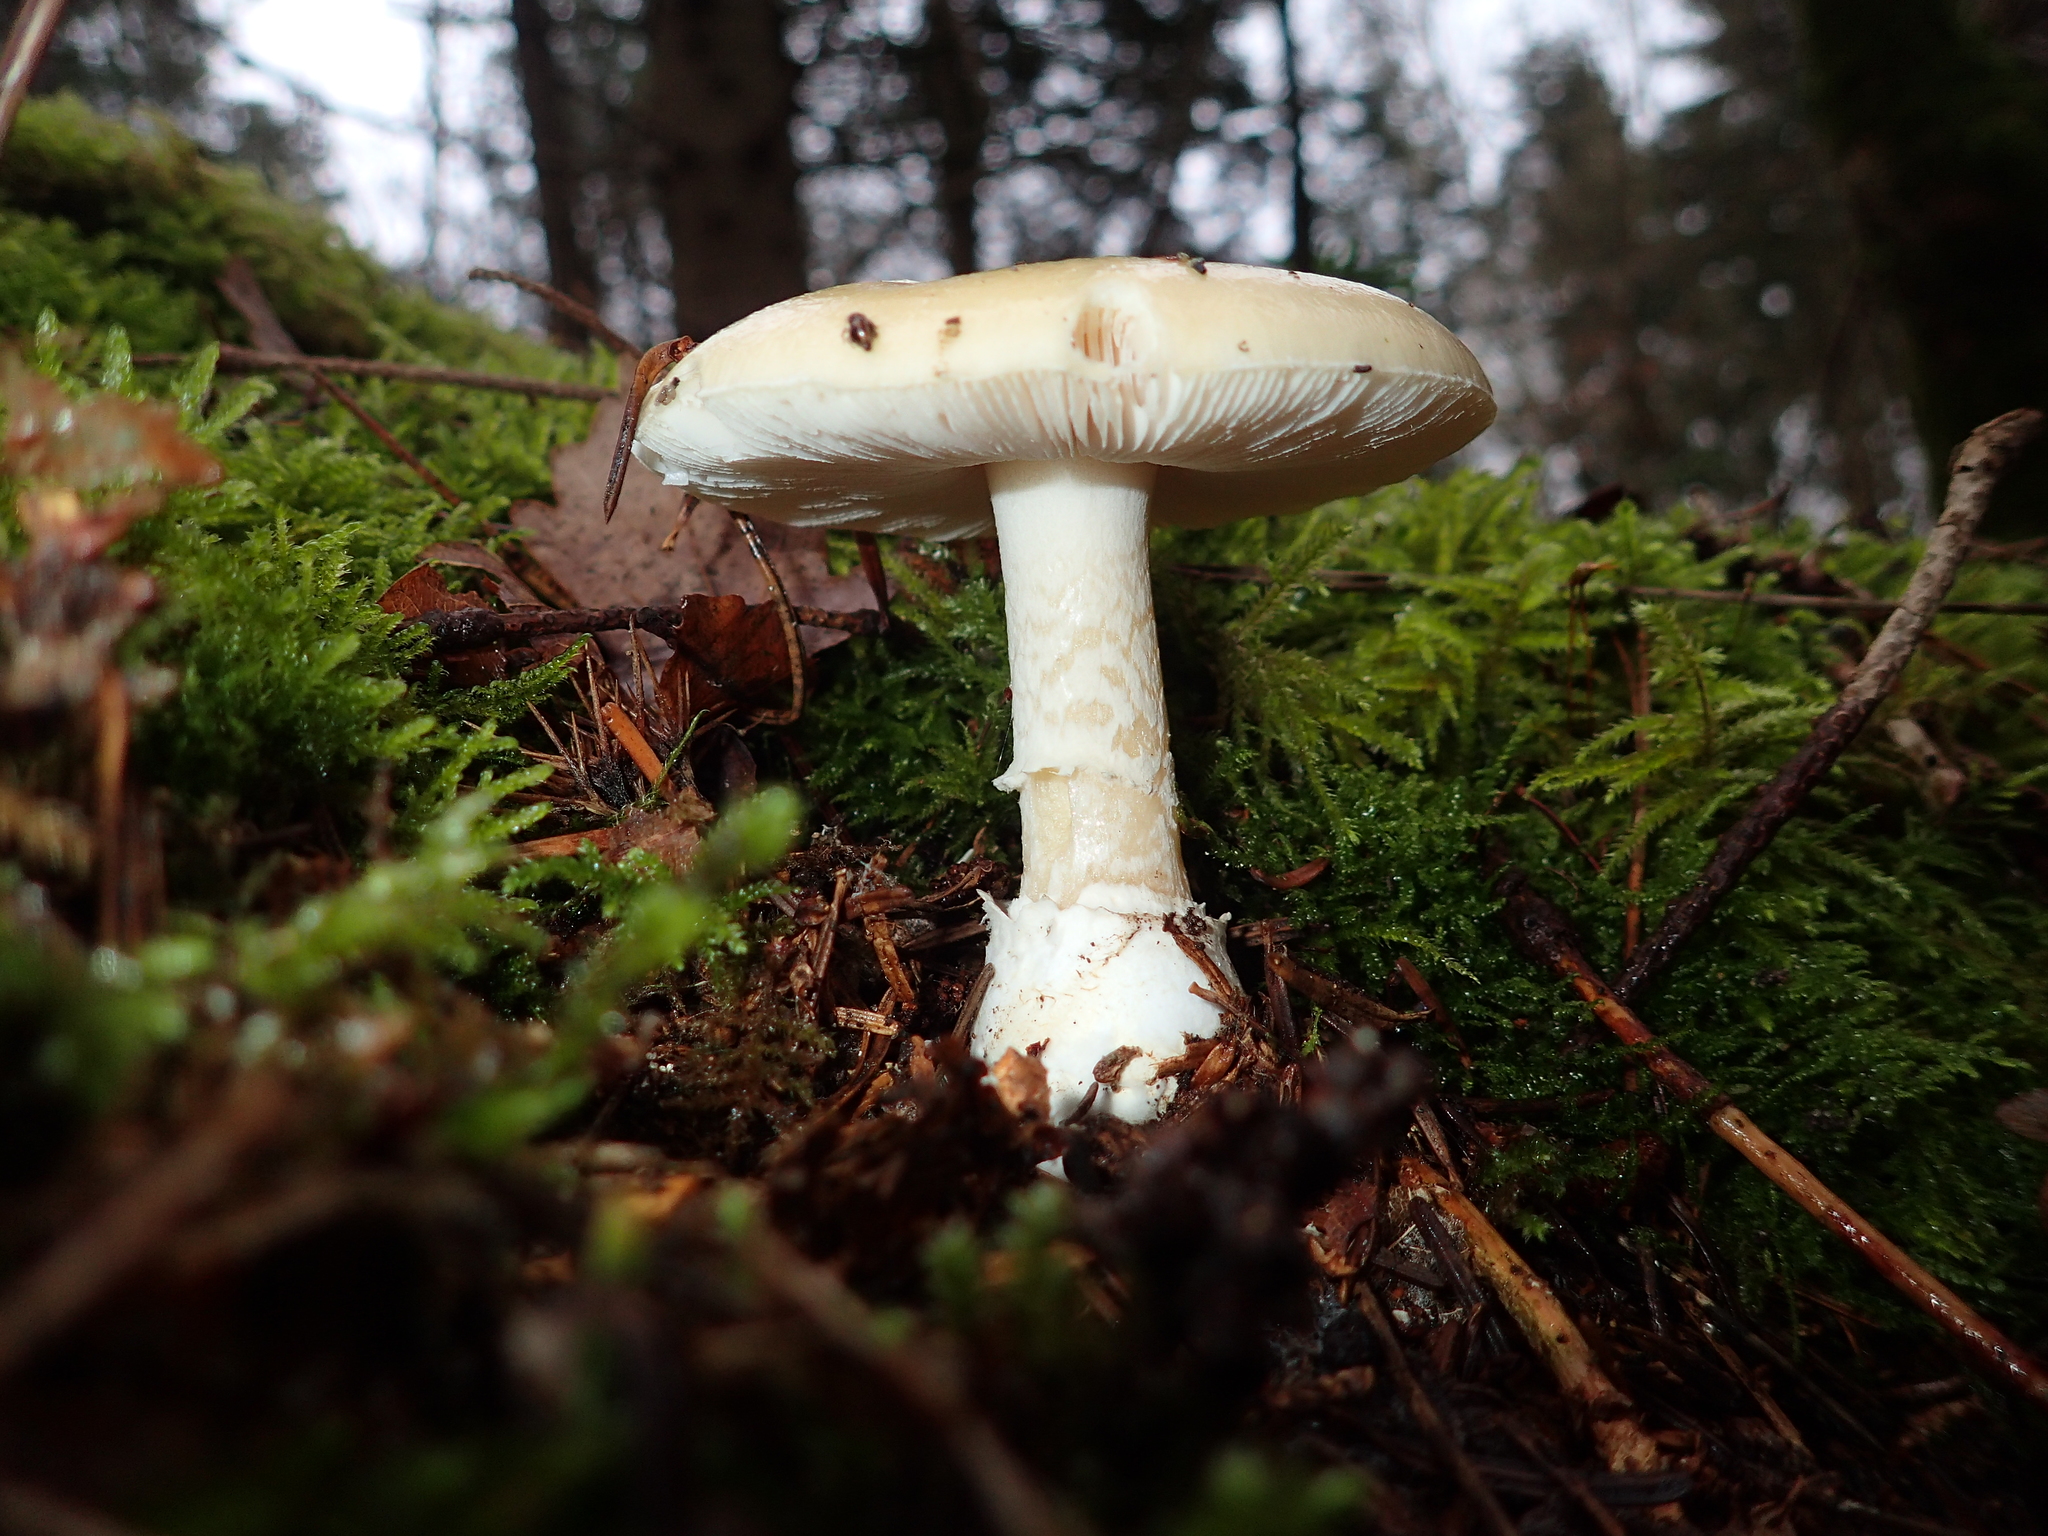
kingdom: Fungi
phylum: Basidiomycota
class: Agaricomycetes
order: Agaricales
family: Amanitaceae
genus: Amanita
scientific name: Amanita gemmata
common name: Jewelled amanita
